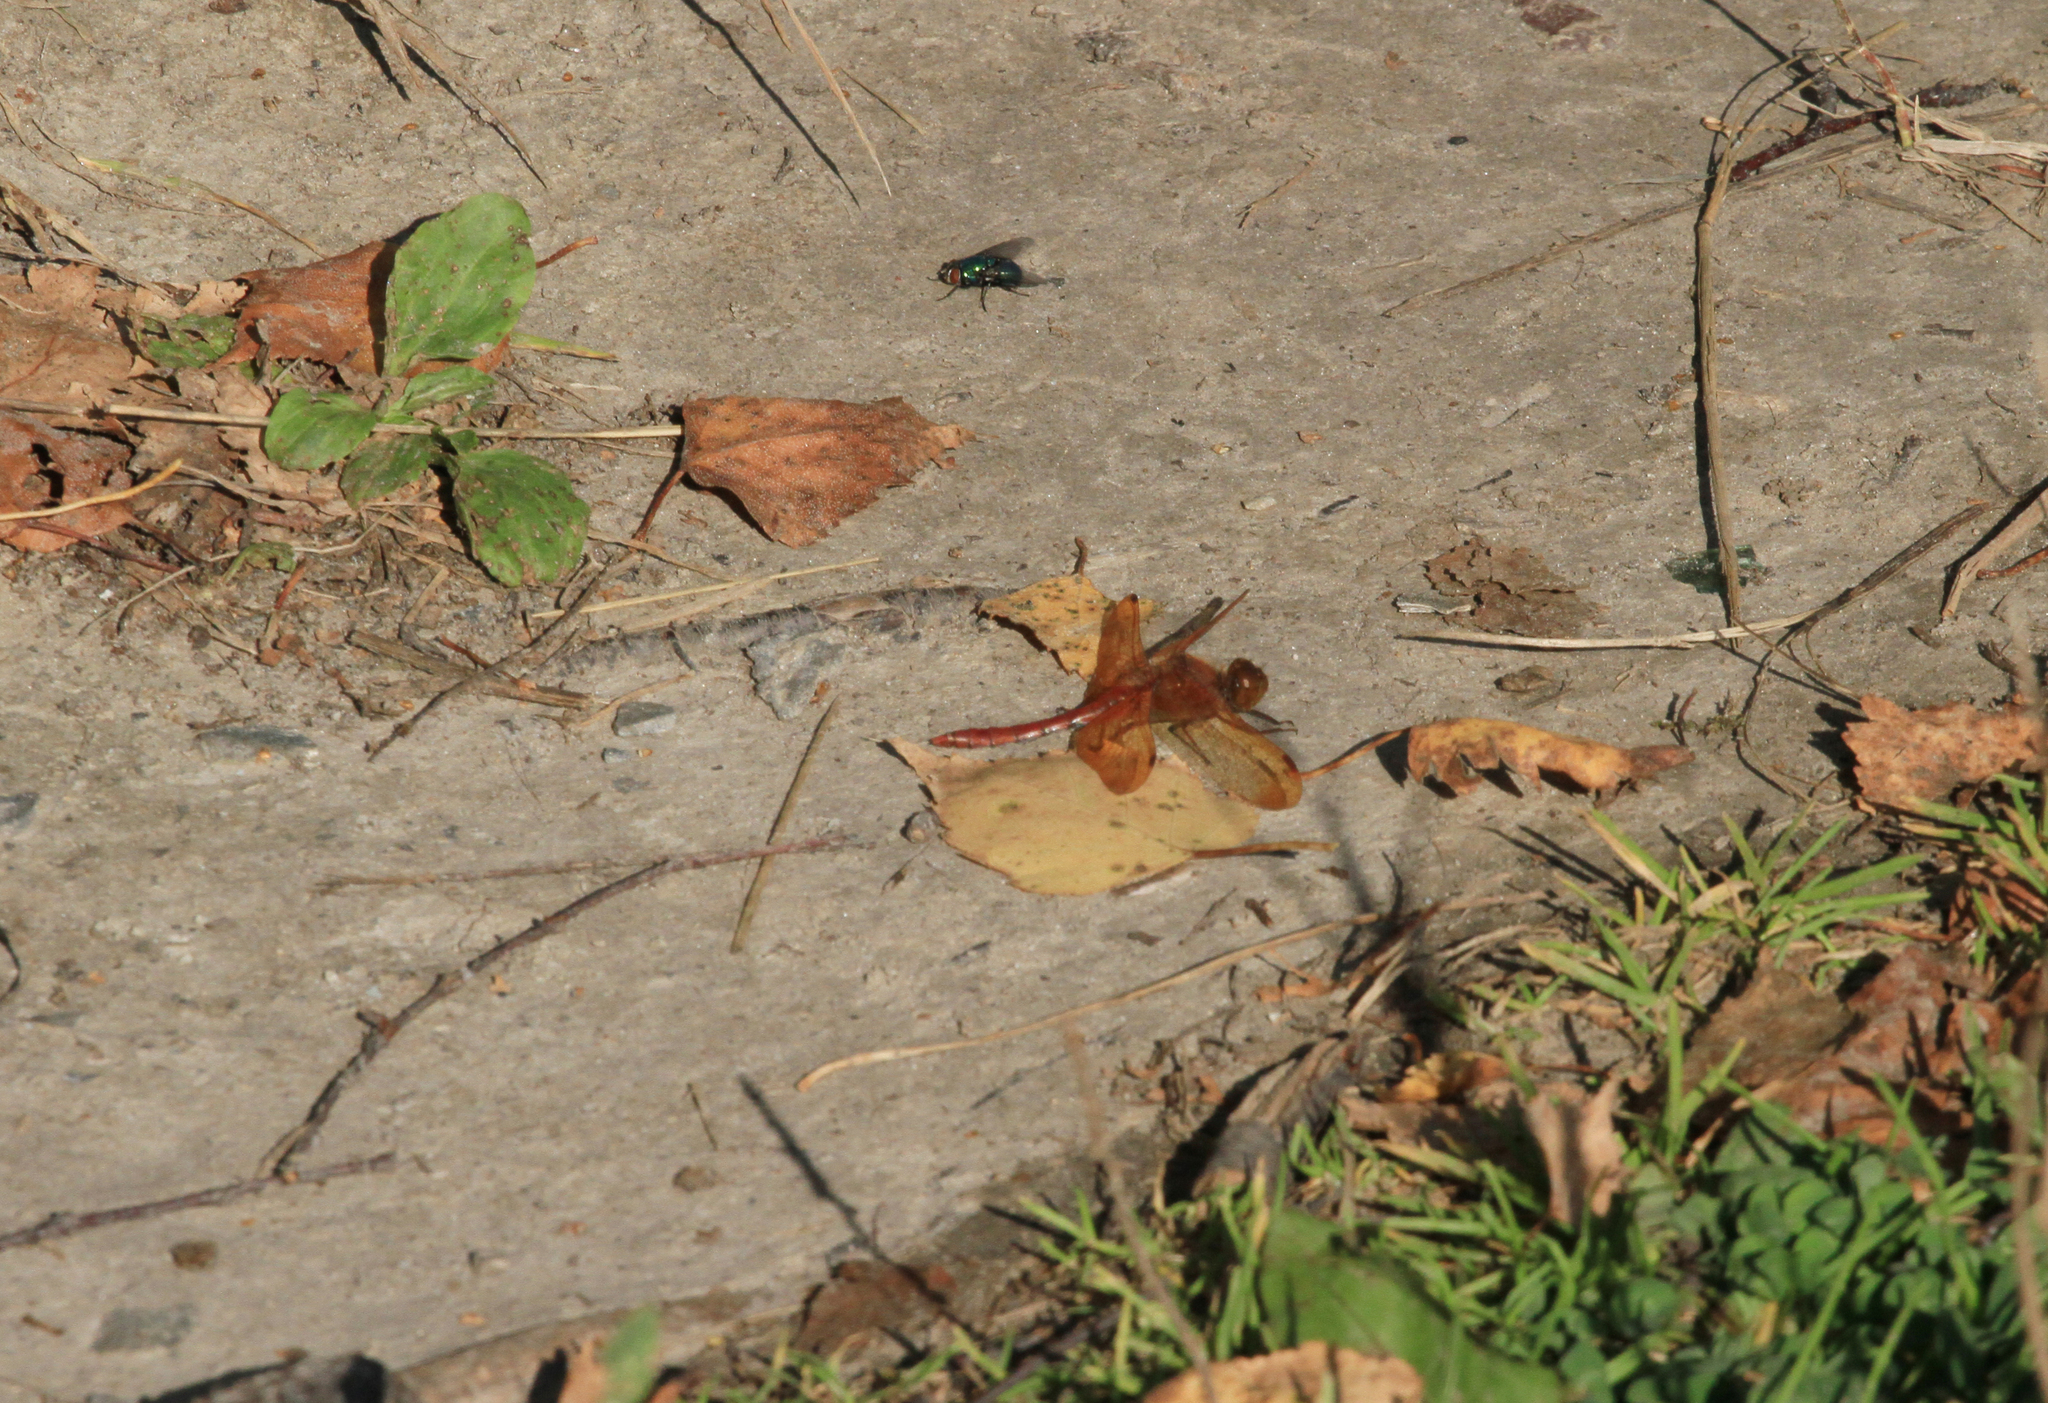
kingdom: Animalia
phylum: Arthropoda
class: Insecta
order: Odonata
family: Libellulidae
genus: Sympetrum
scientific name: Sympetrum croceolum
